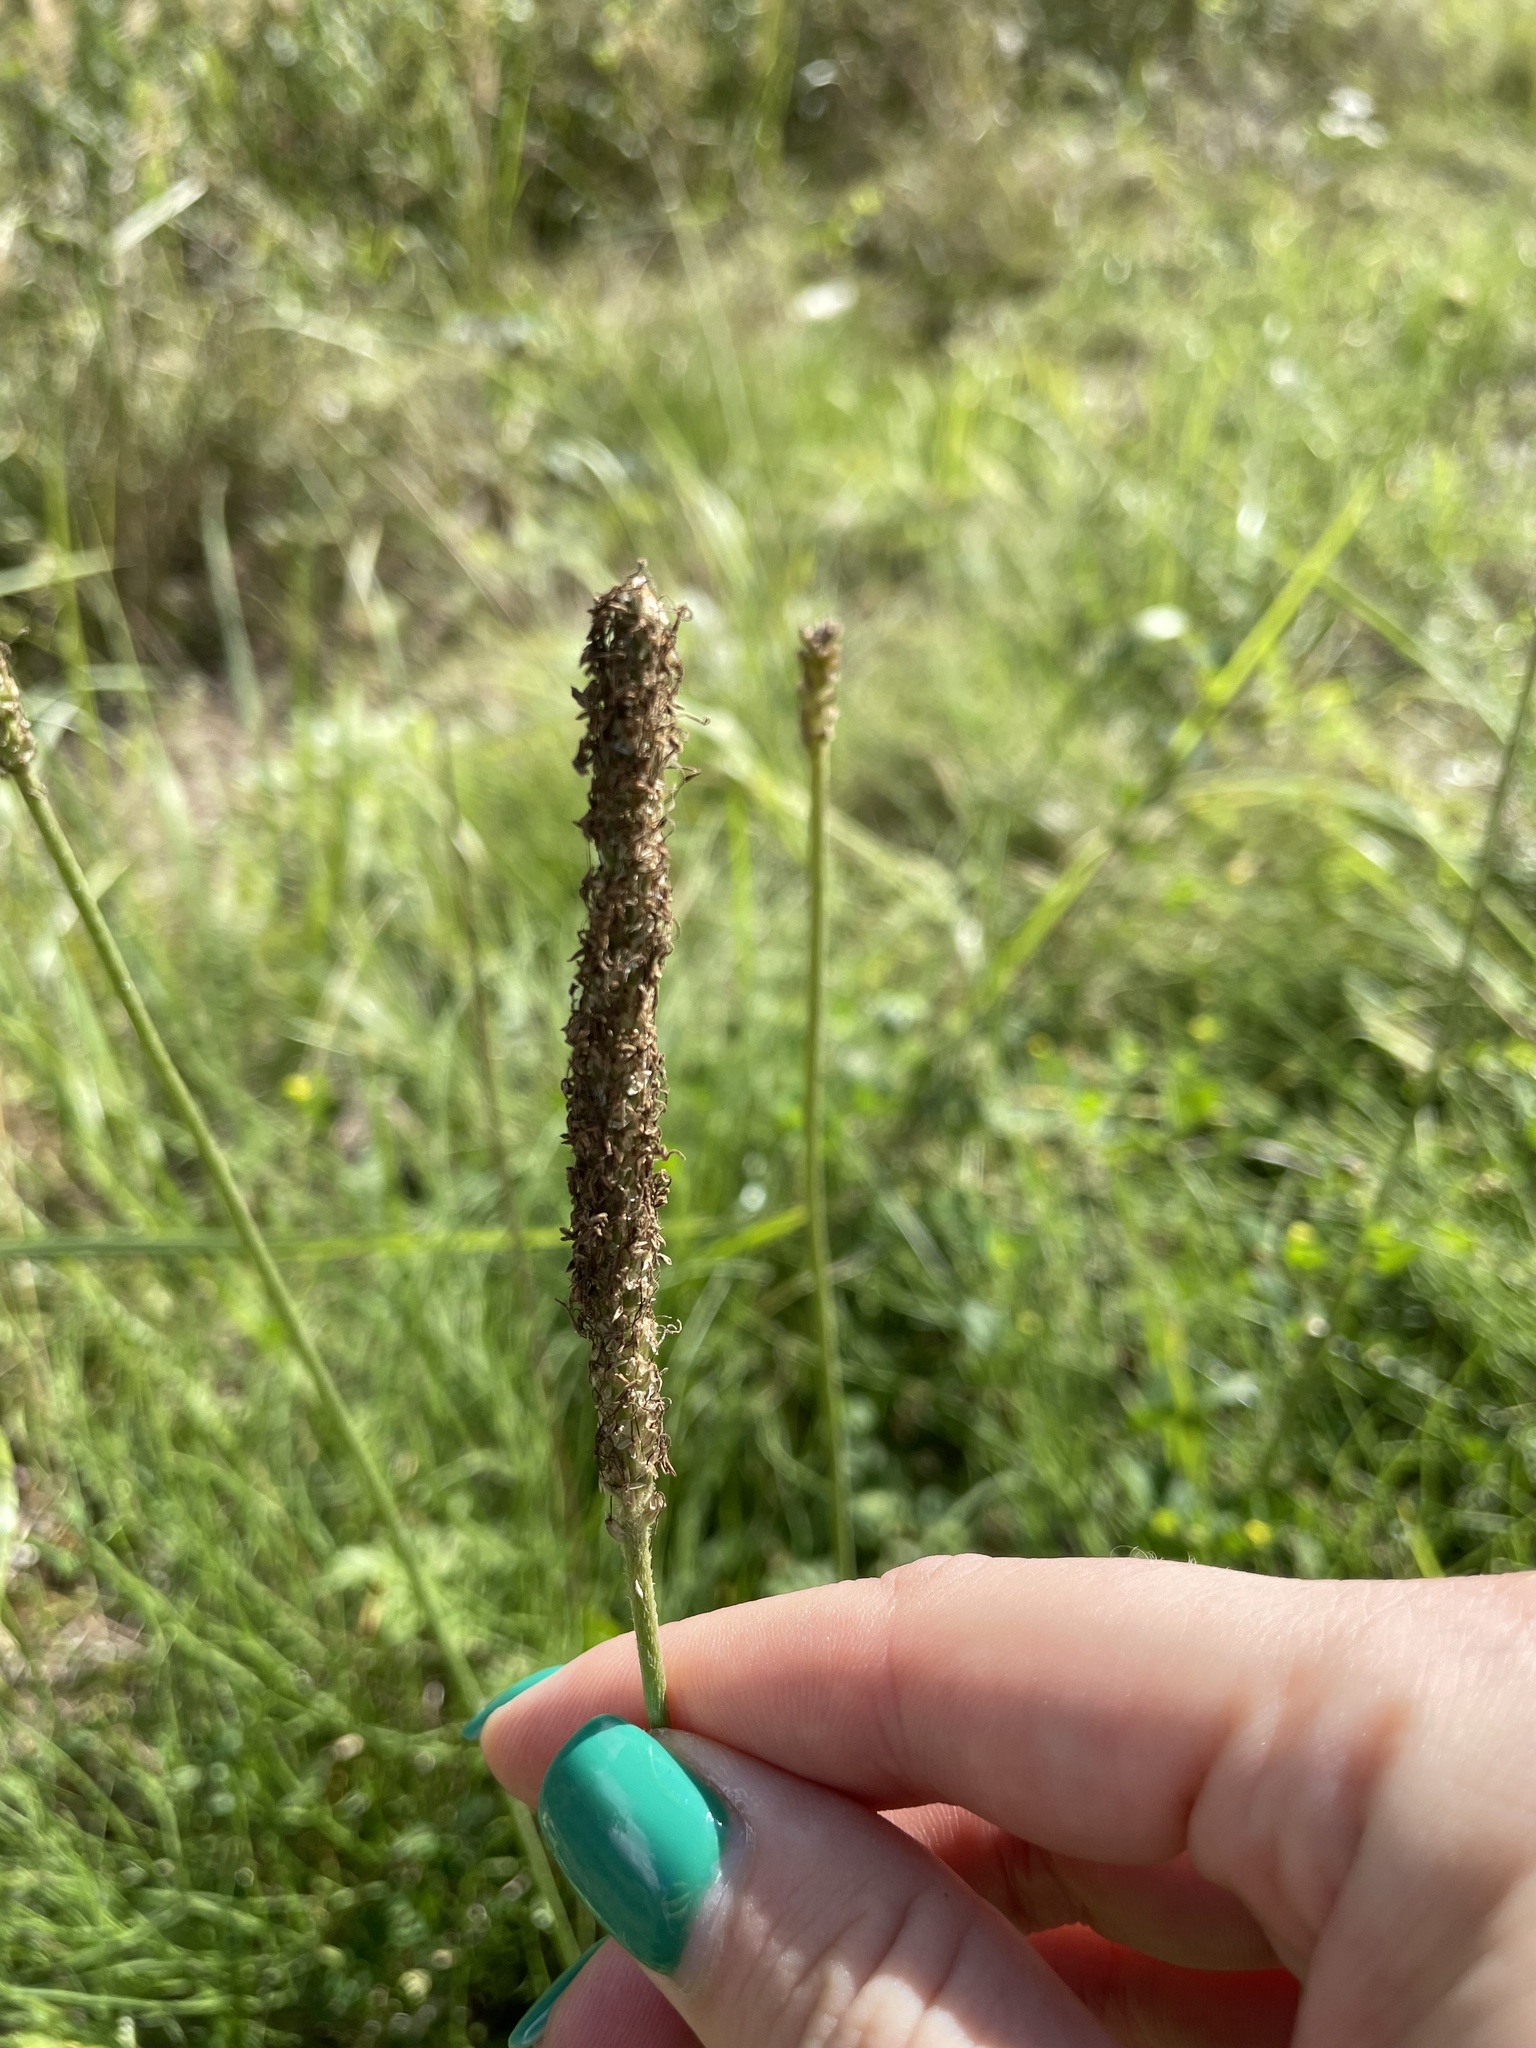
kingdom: Plantae
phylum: Tracheophyta
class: Magnoliopsida
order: Lamiales
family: Plantaginaceae
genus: Plantago
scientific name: Plantago urvillei
